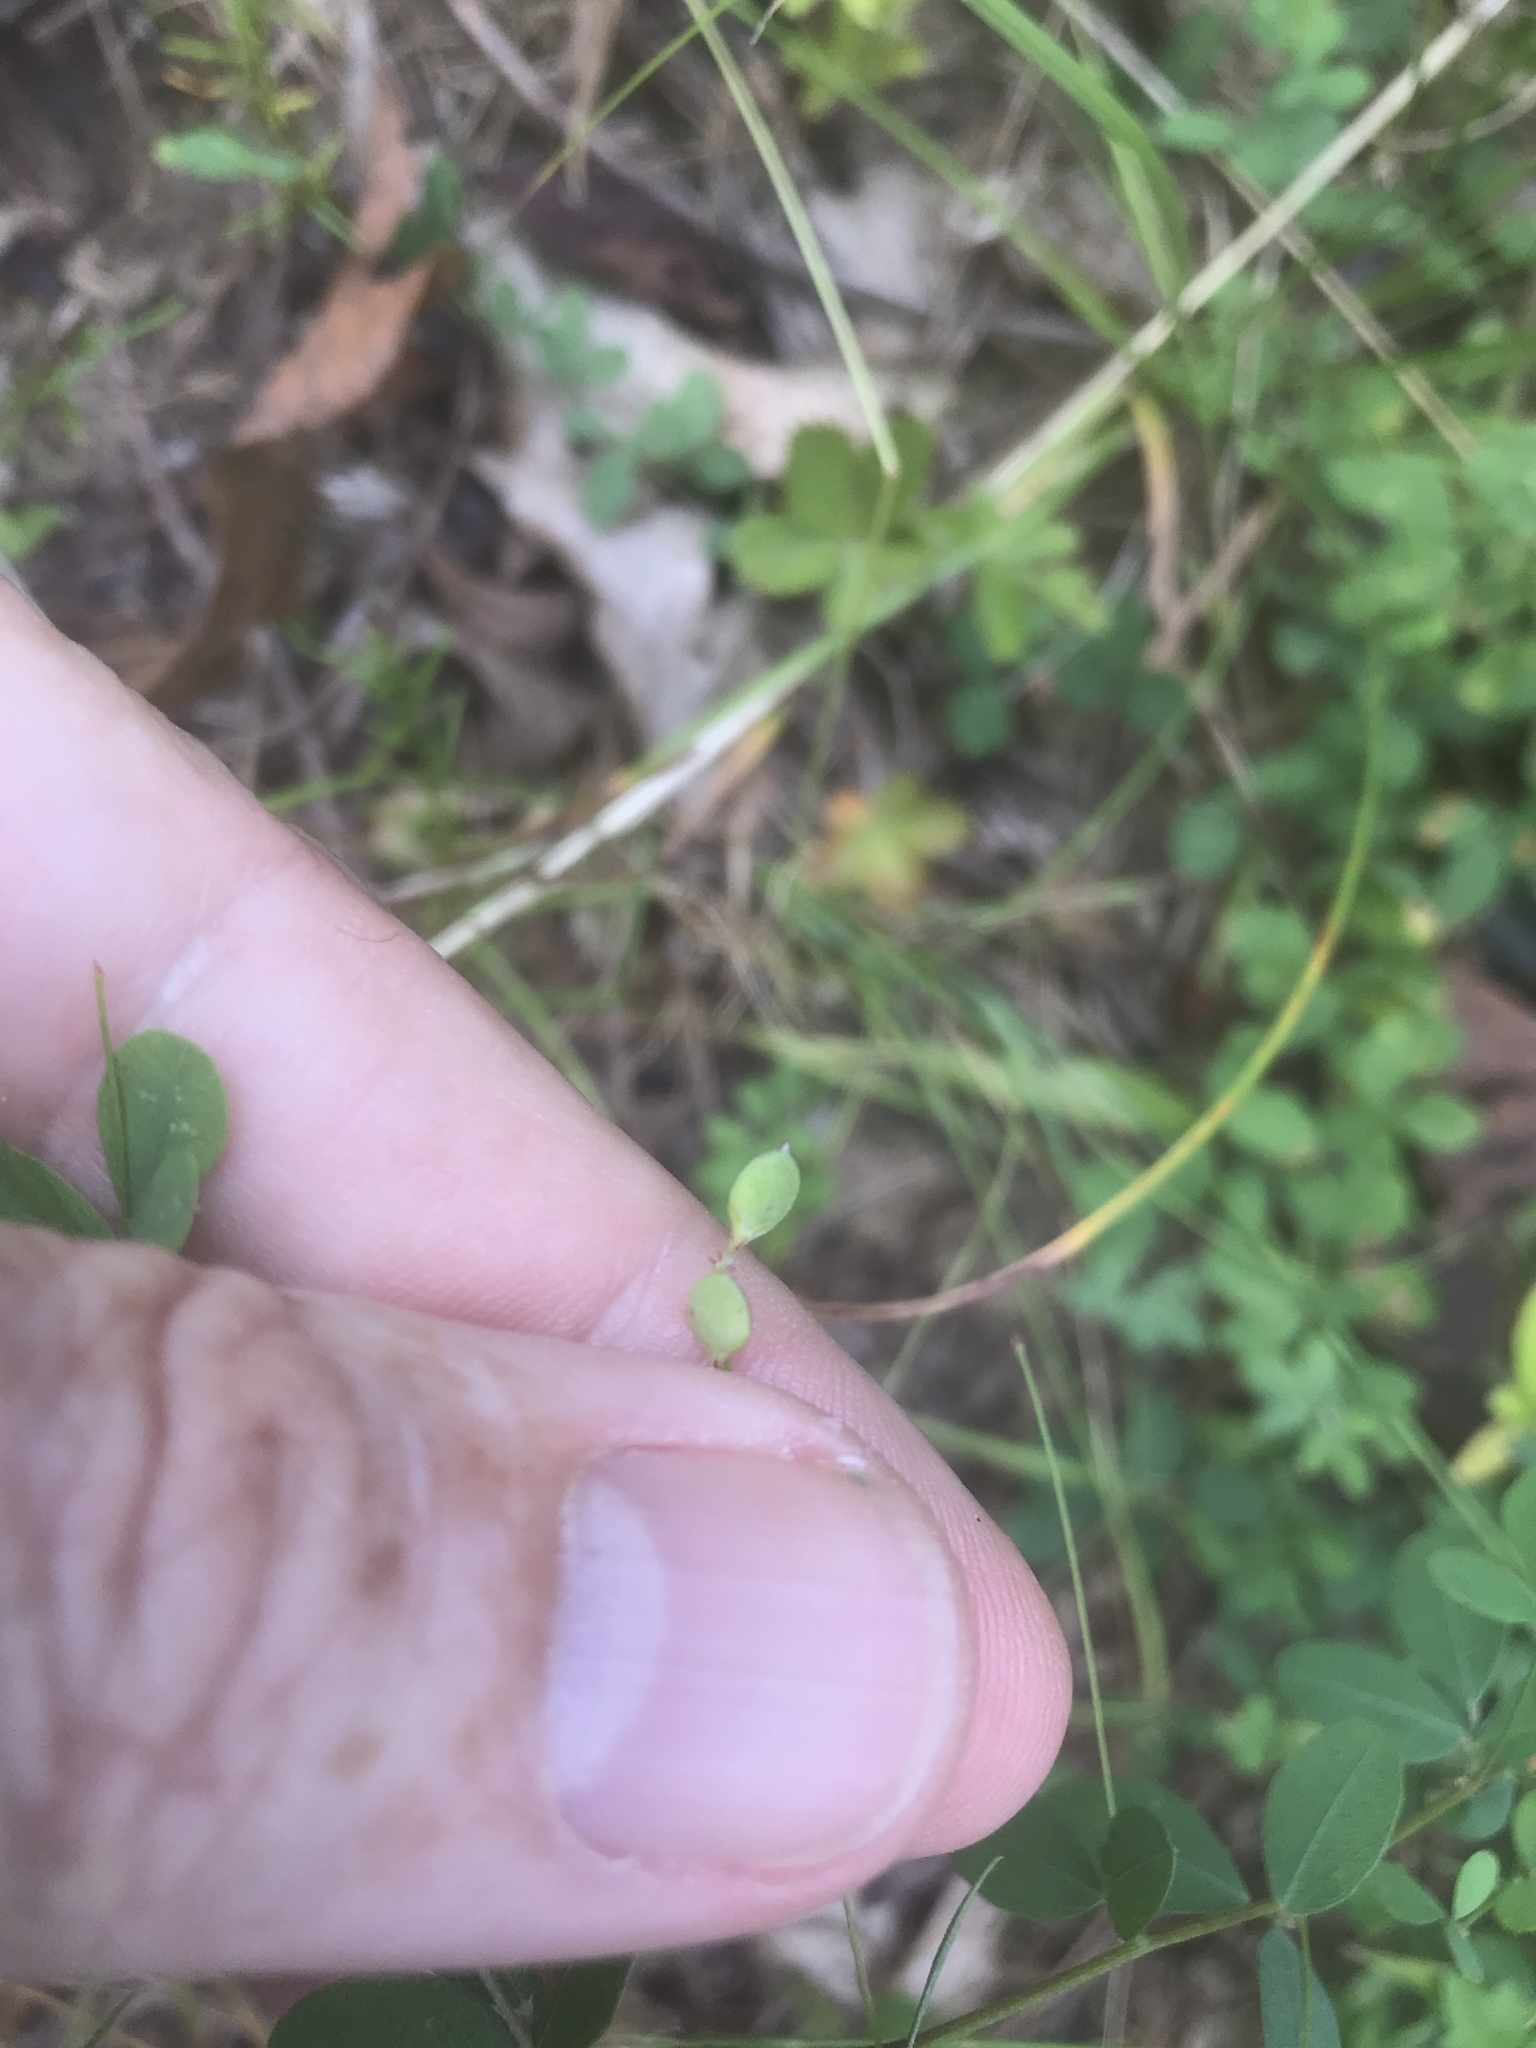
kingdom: Plantae
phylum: Tracheophyta
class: Magnoliopsida
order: Fabales
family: Fabaceae
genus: Lespedeza
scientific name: Lespedeza repens
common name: Creeping bush-clover
